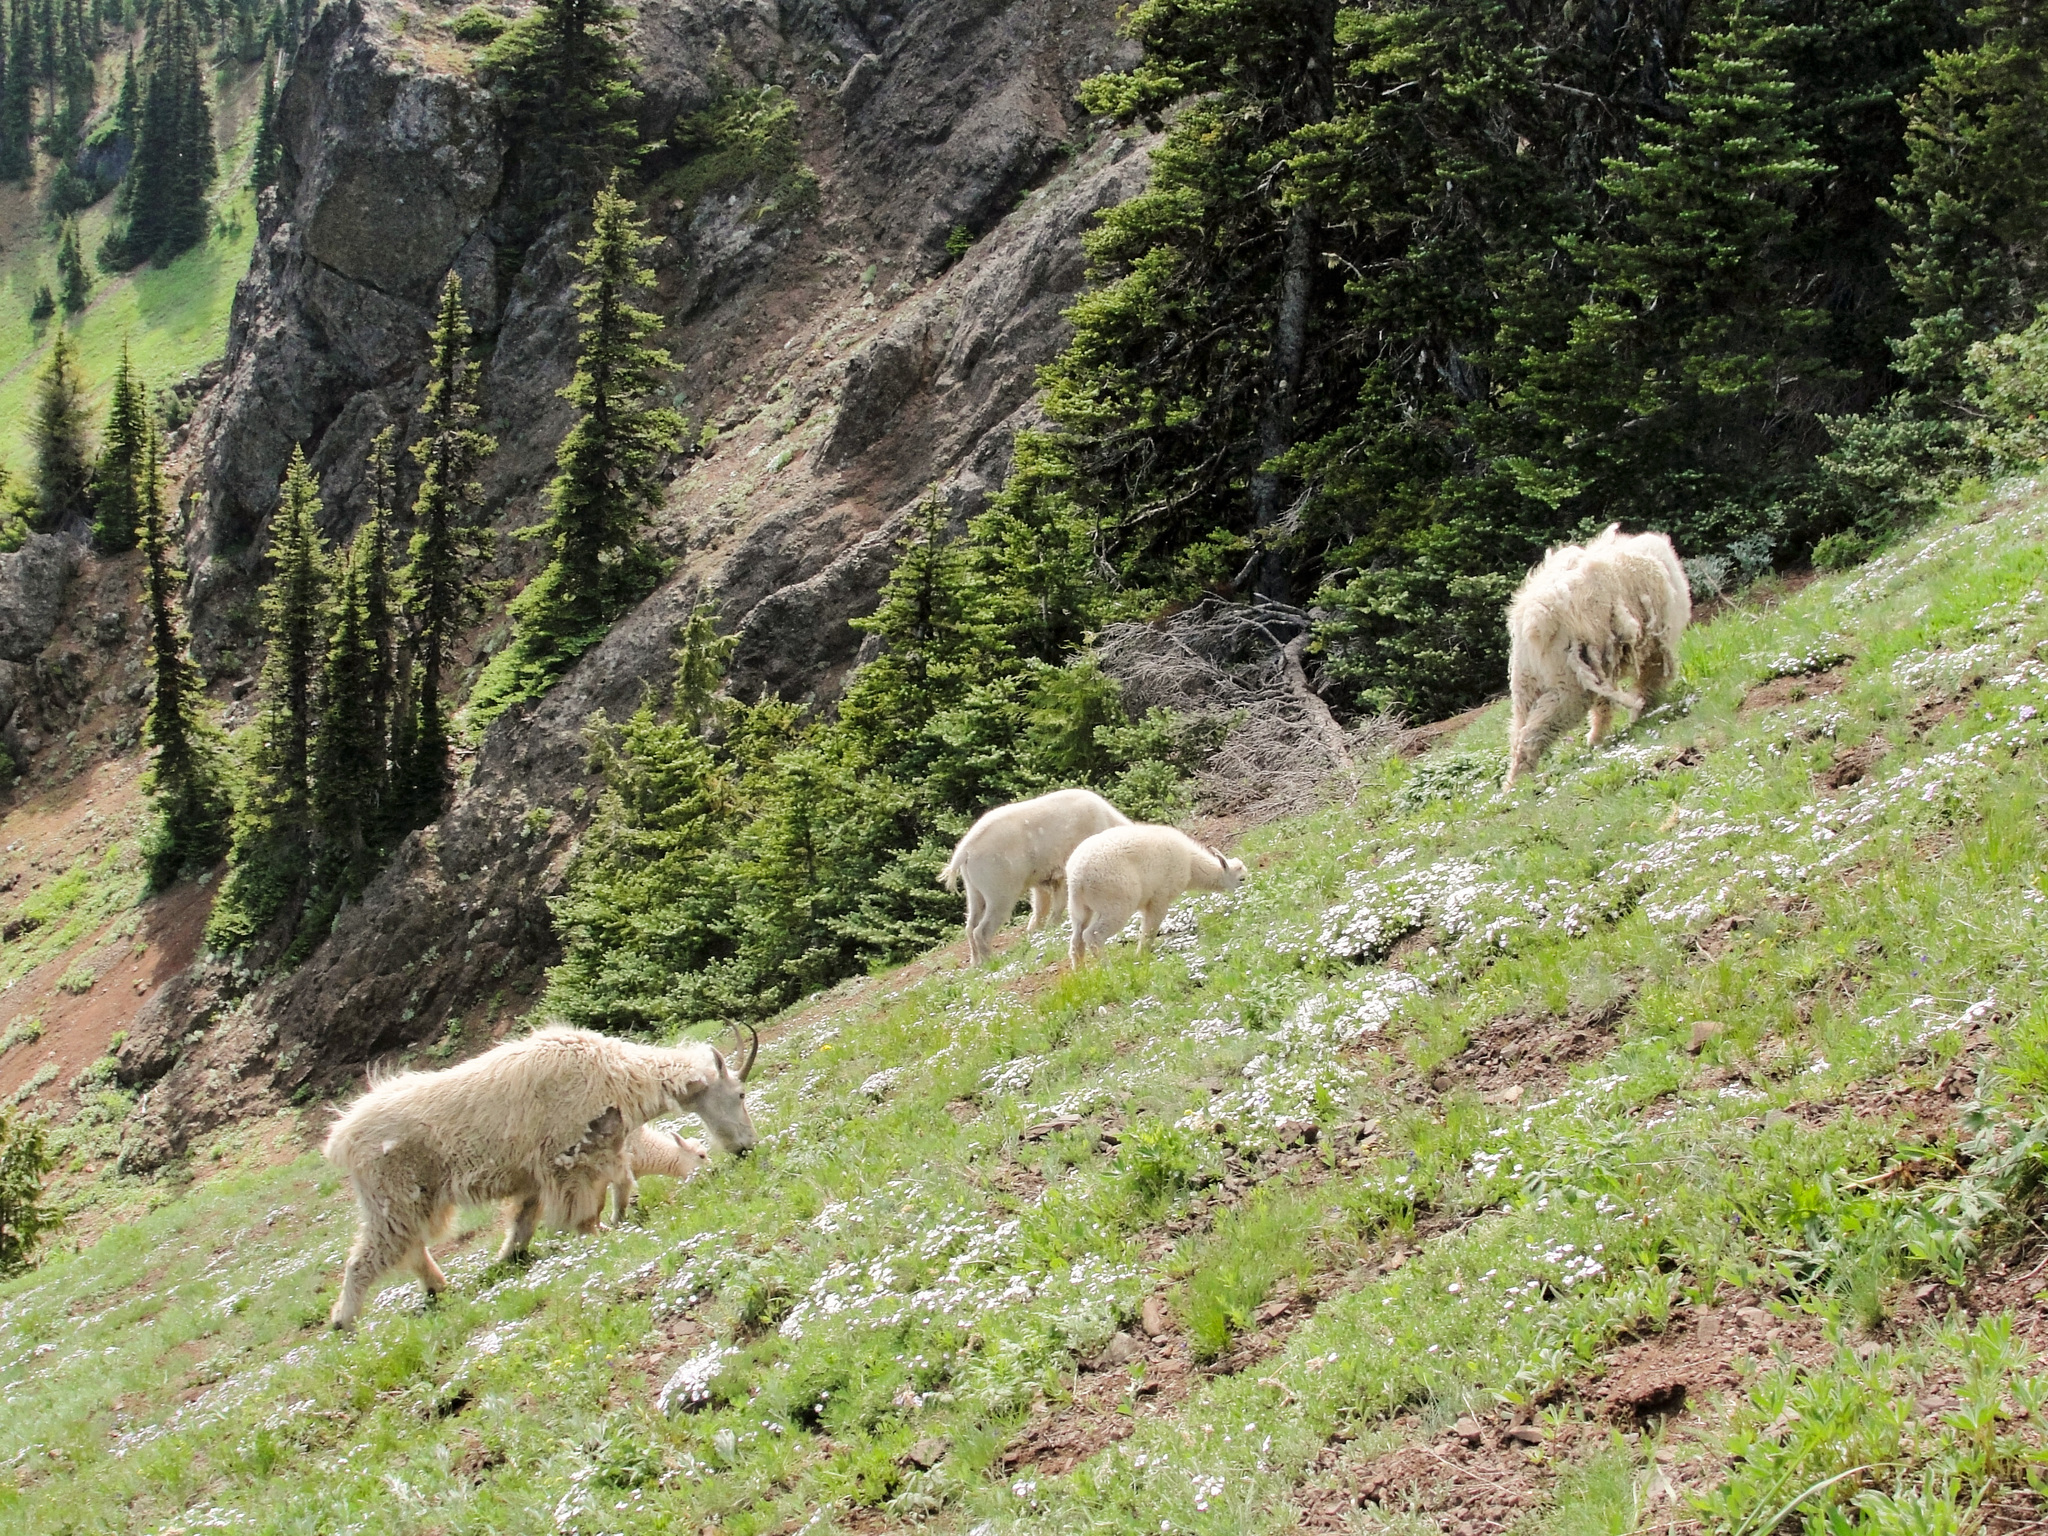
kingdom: Animalia
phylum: Chordata
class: Mammalia
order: Artiodactyla
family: Bovidae
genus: Oreamnos
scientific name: Oreamnos americanus
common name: Mountain goat
